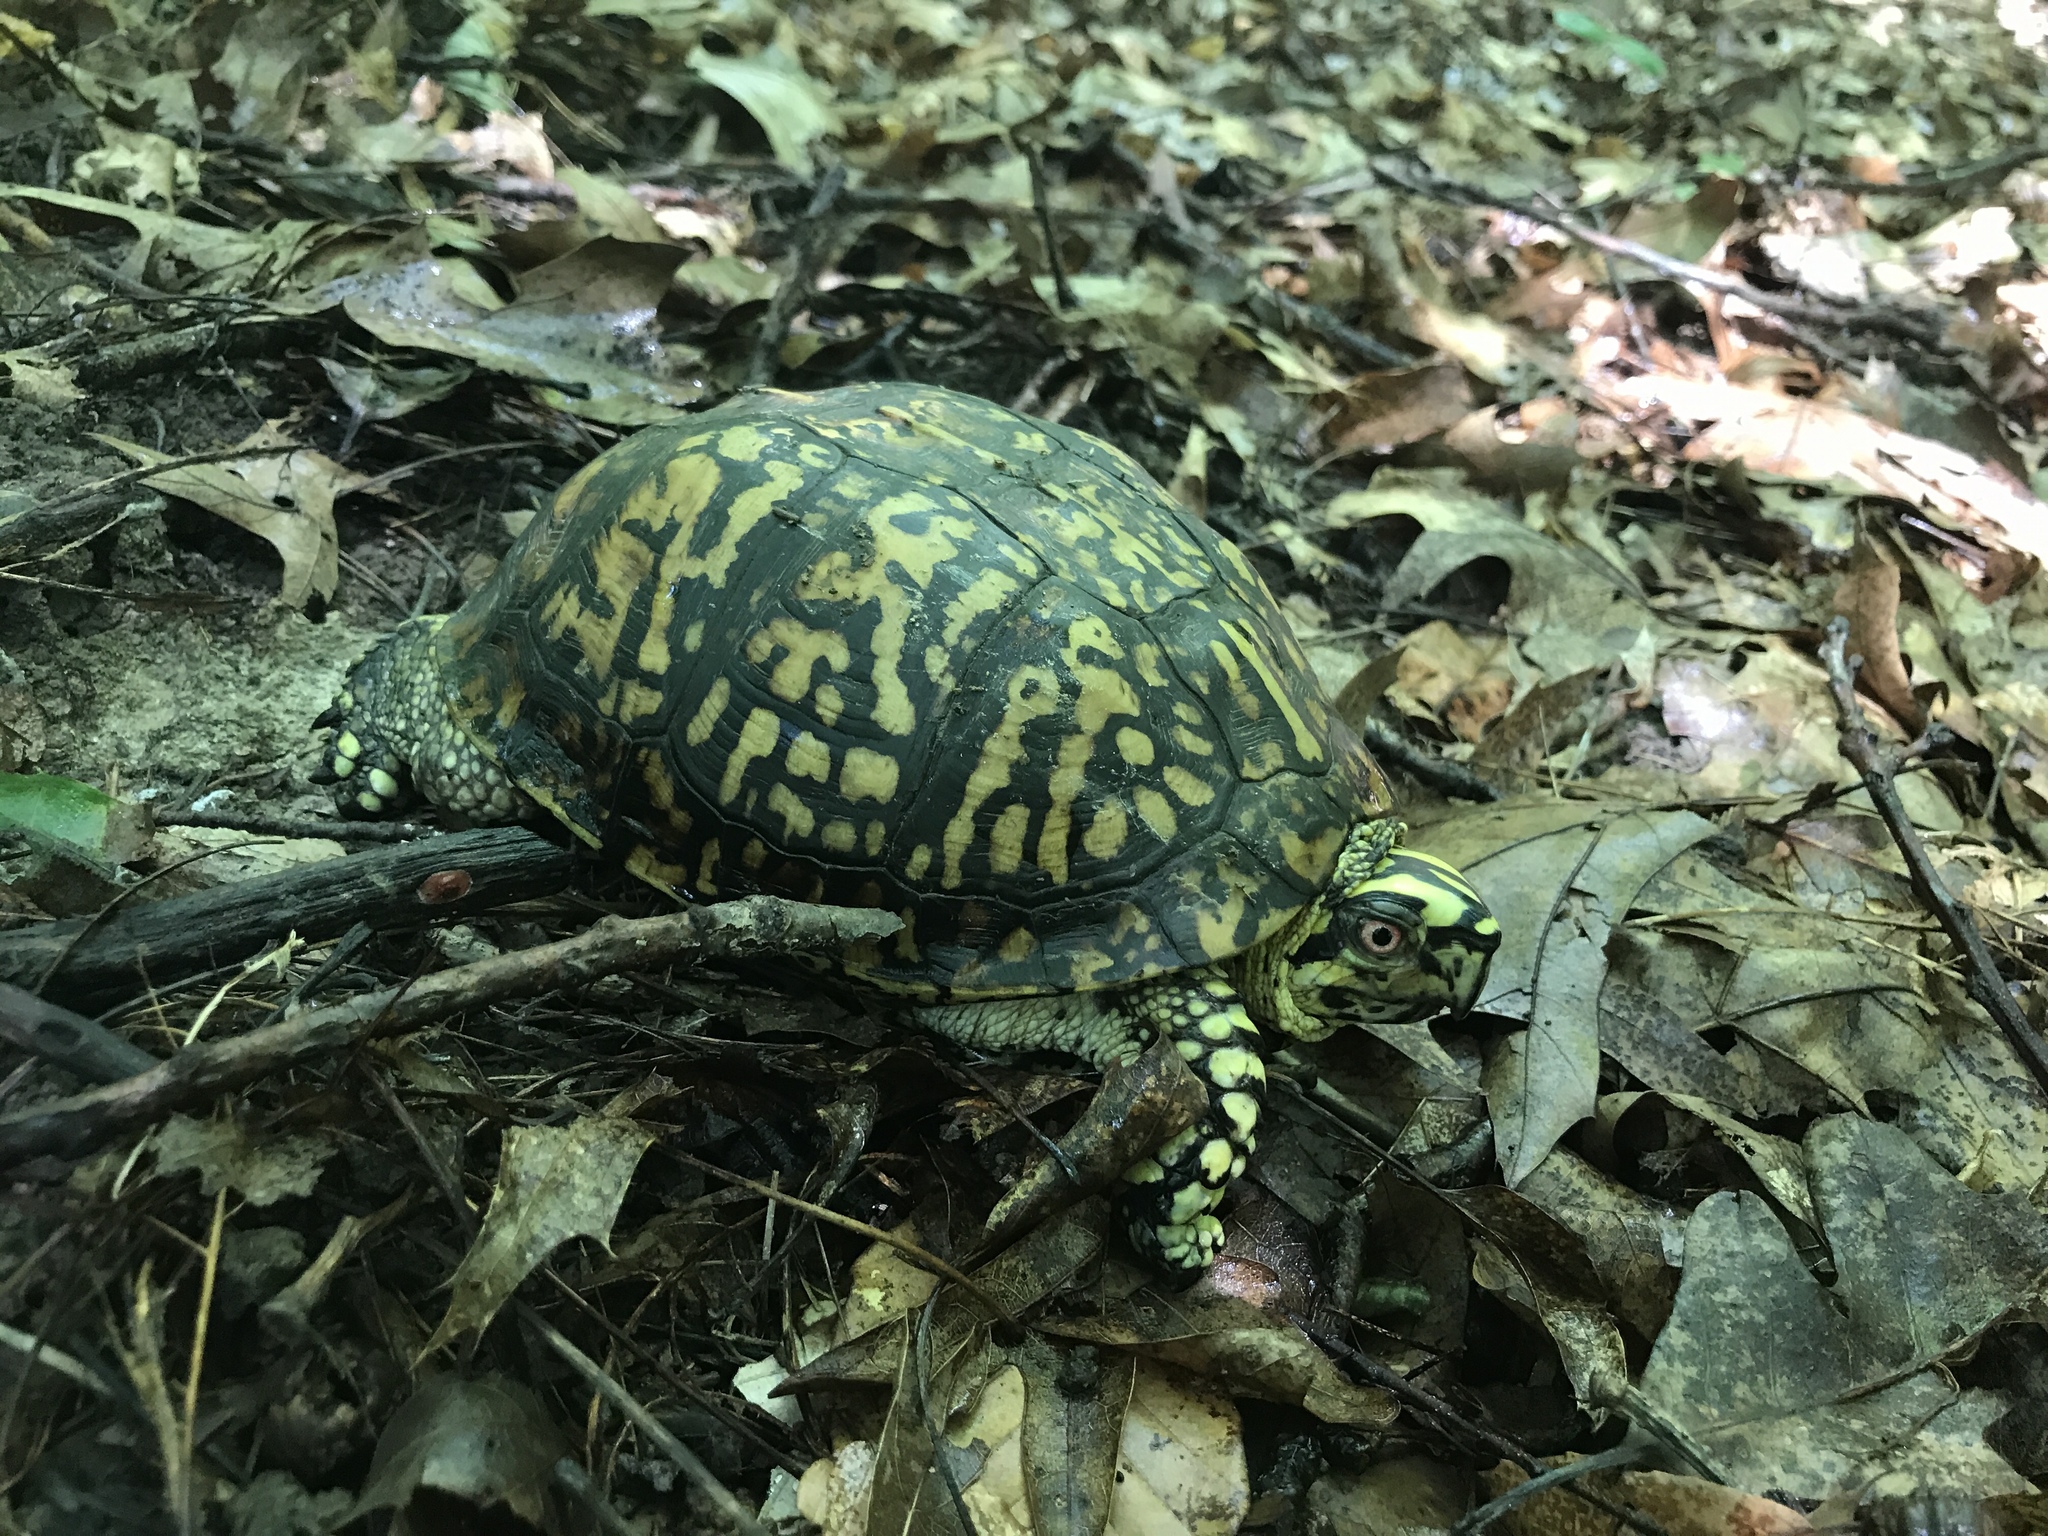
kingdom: Animalia
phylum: Chordata
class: Testudines
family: Emydidae
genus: Terrapene
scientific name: Terrapene carolina
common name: Common box turtle
